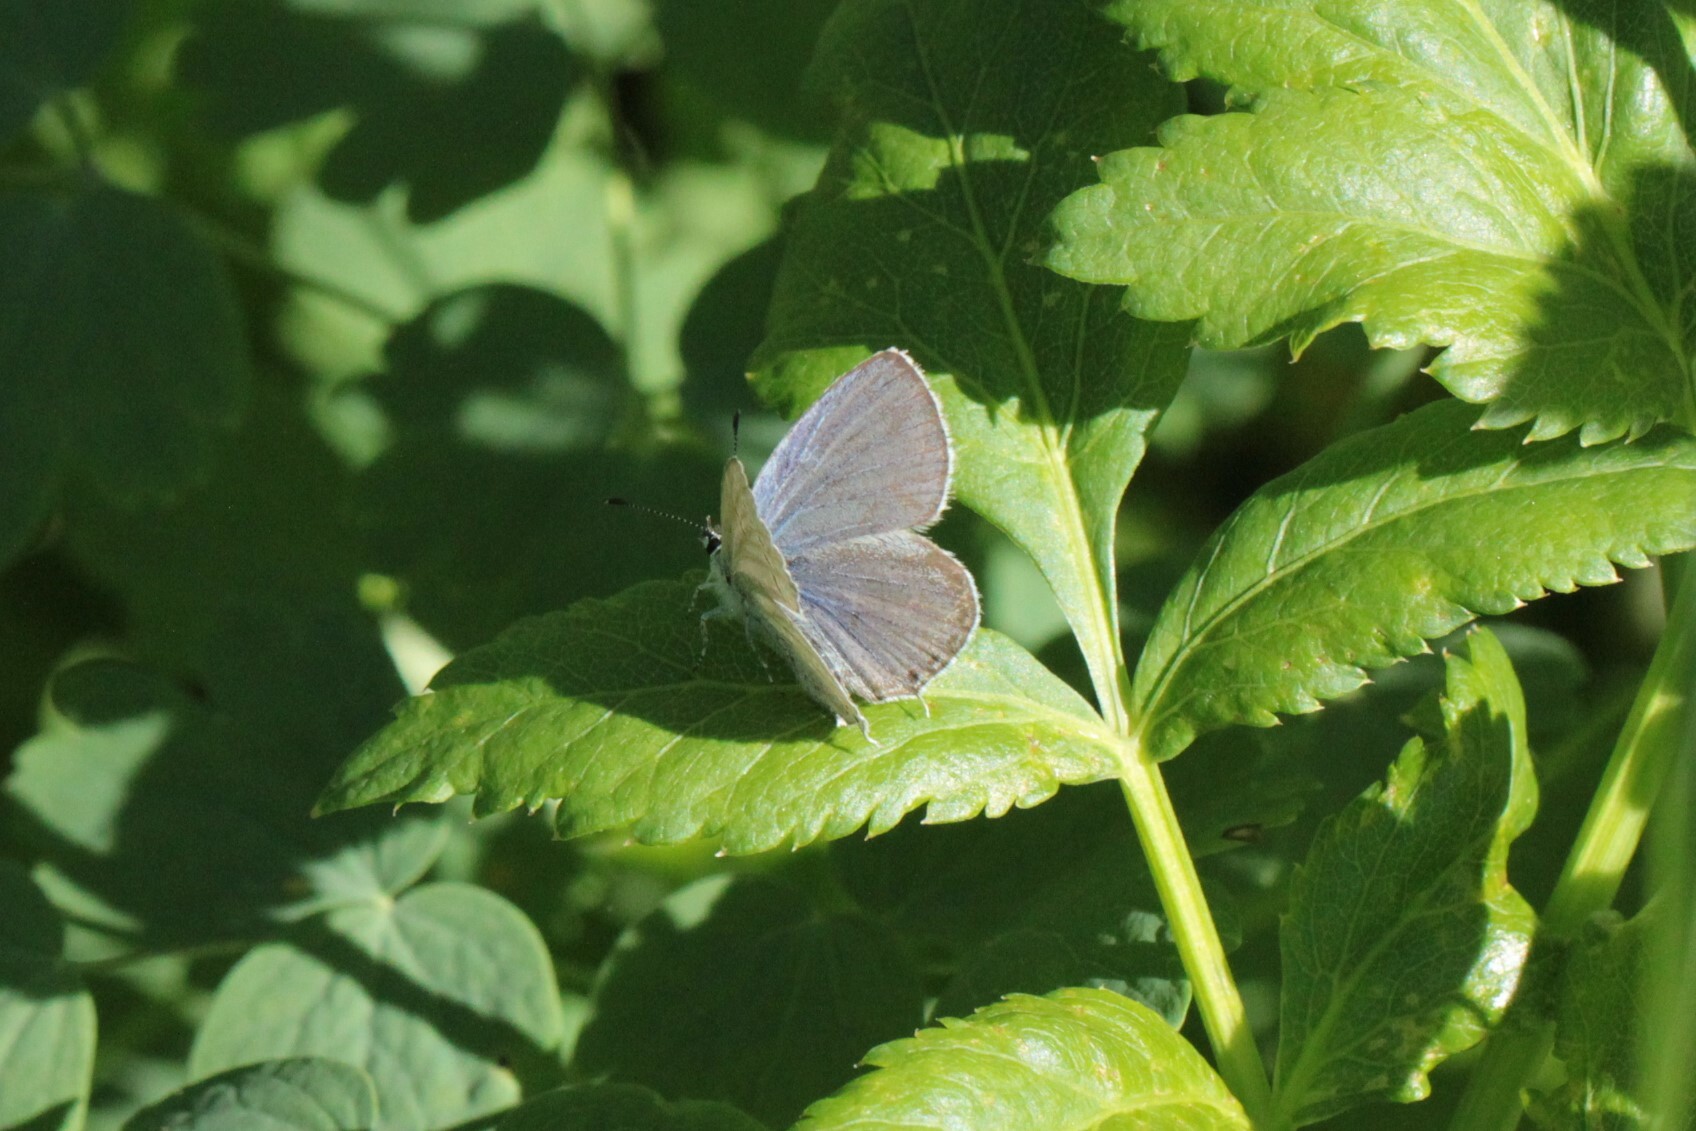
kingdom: Animalia
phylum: Arthropoda
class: Insecta
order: Lepidoptera
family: Lycaenidae
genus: Elkalyce
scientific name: Elkalyce amyntula
